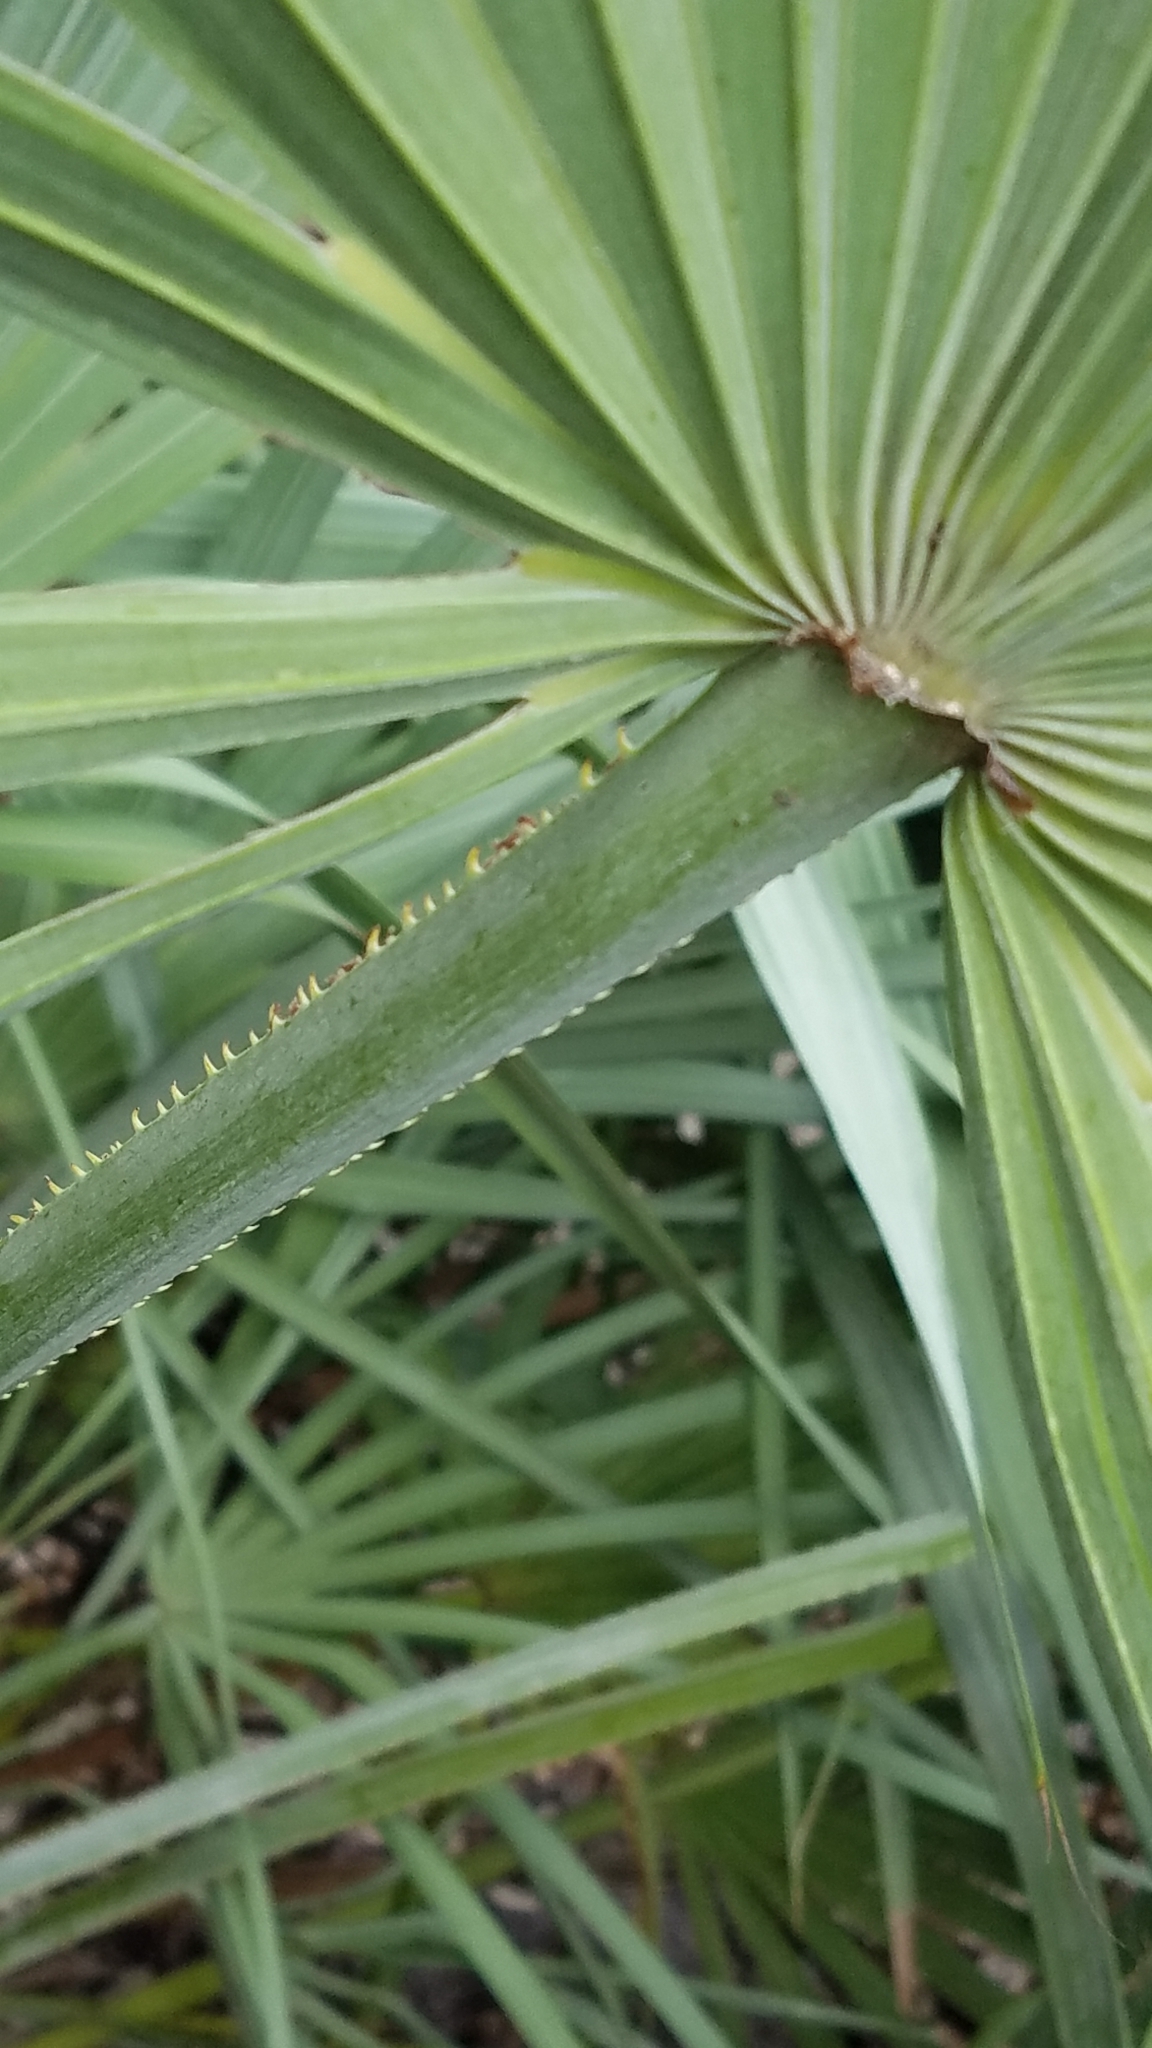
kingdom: Plantae
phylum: Tracheophyta
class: Liliopsida
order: Arecales
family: Arecaceae
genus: Serenoa
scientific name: Serenoa repens
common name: Saw-palmetto
